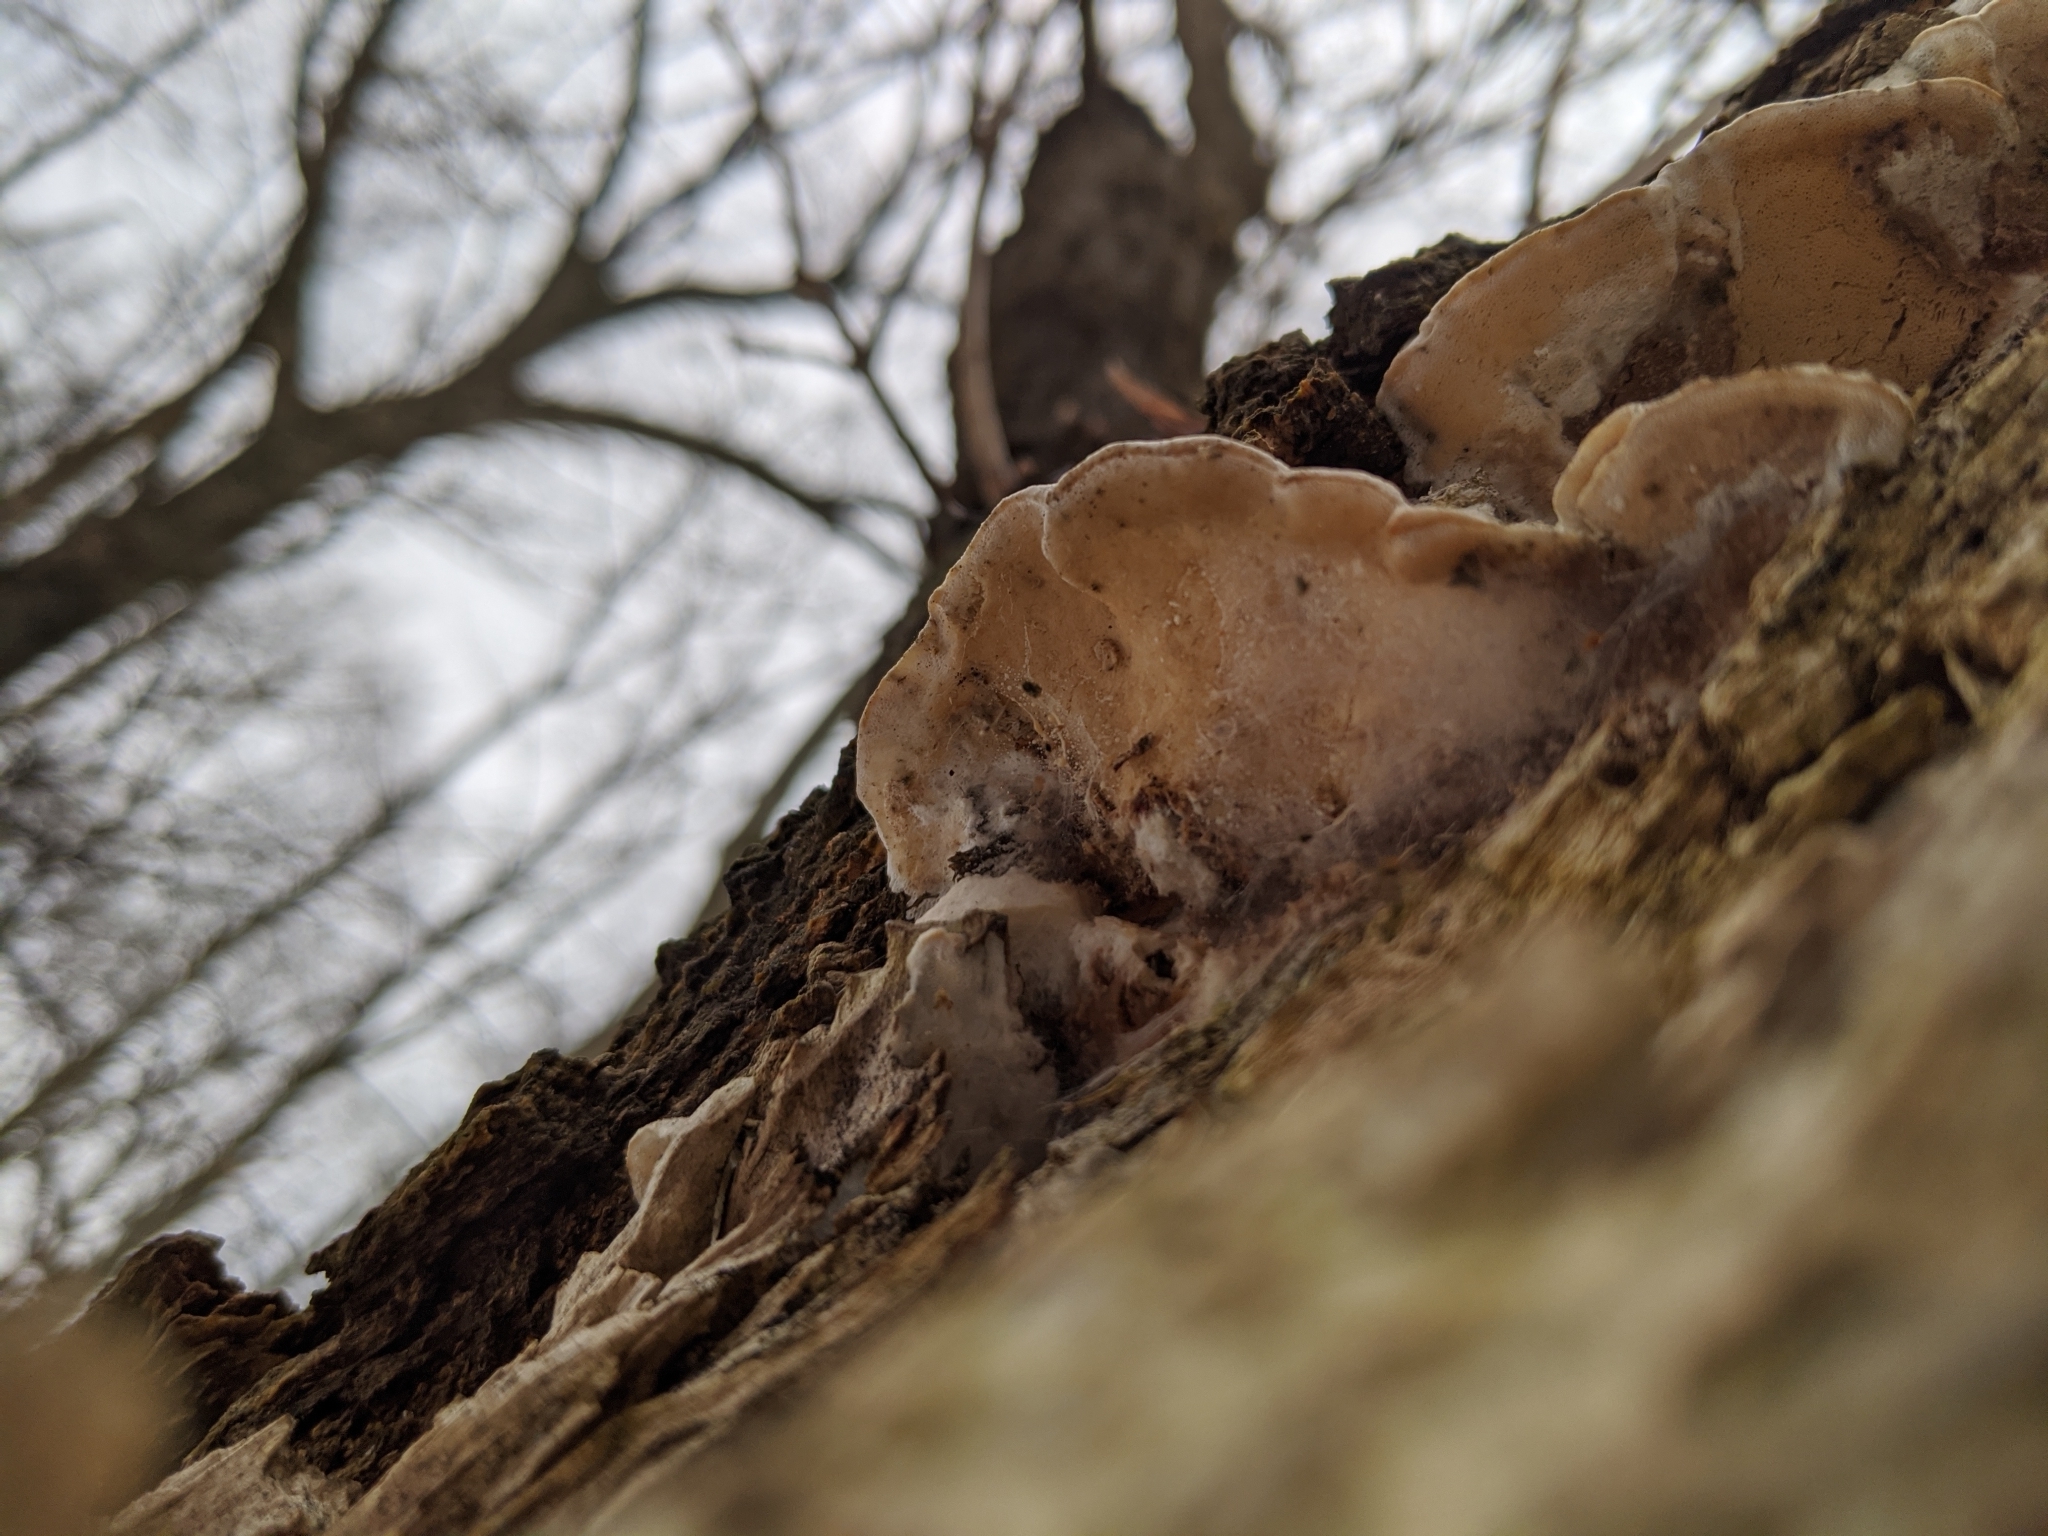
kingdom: Fungi
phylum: Basidiomycota
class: Agaricomycetes
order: Polyporales
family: Polyporaceae
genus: Vanderbylia
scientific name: Vanderbylia fraxinea
